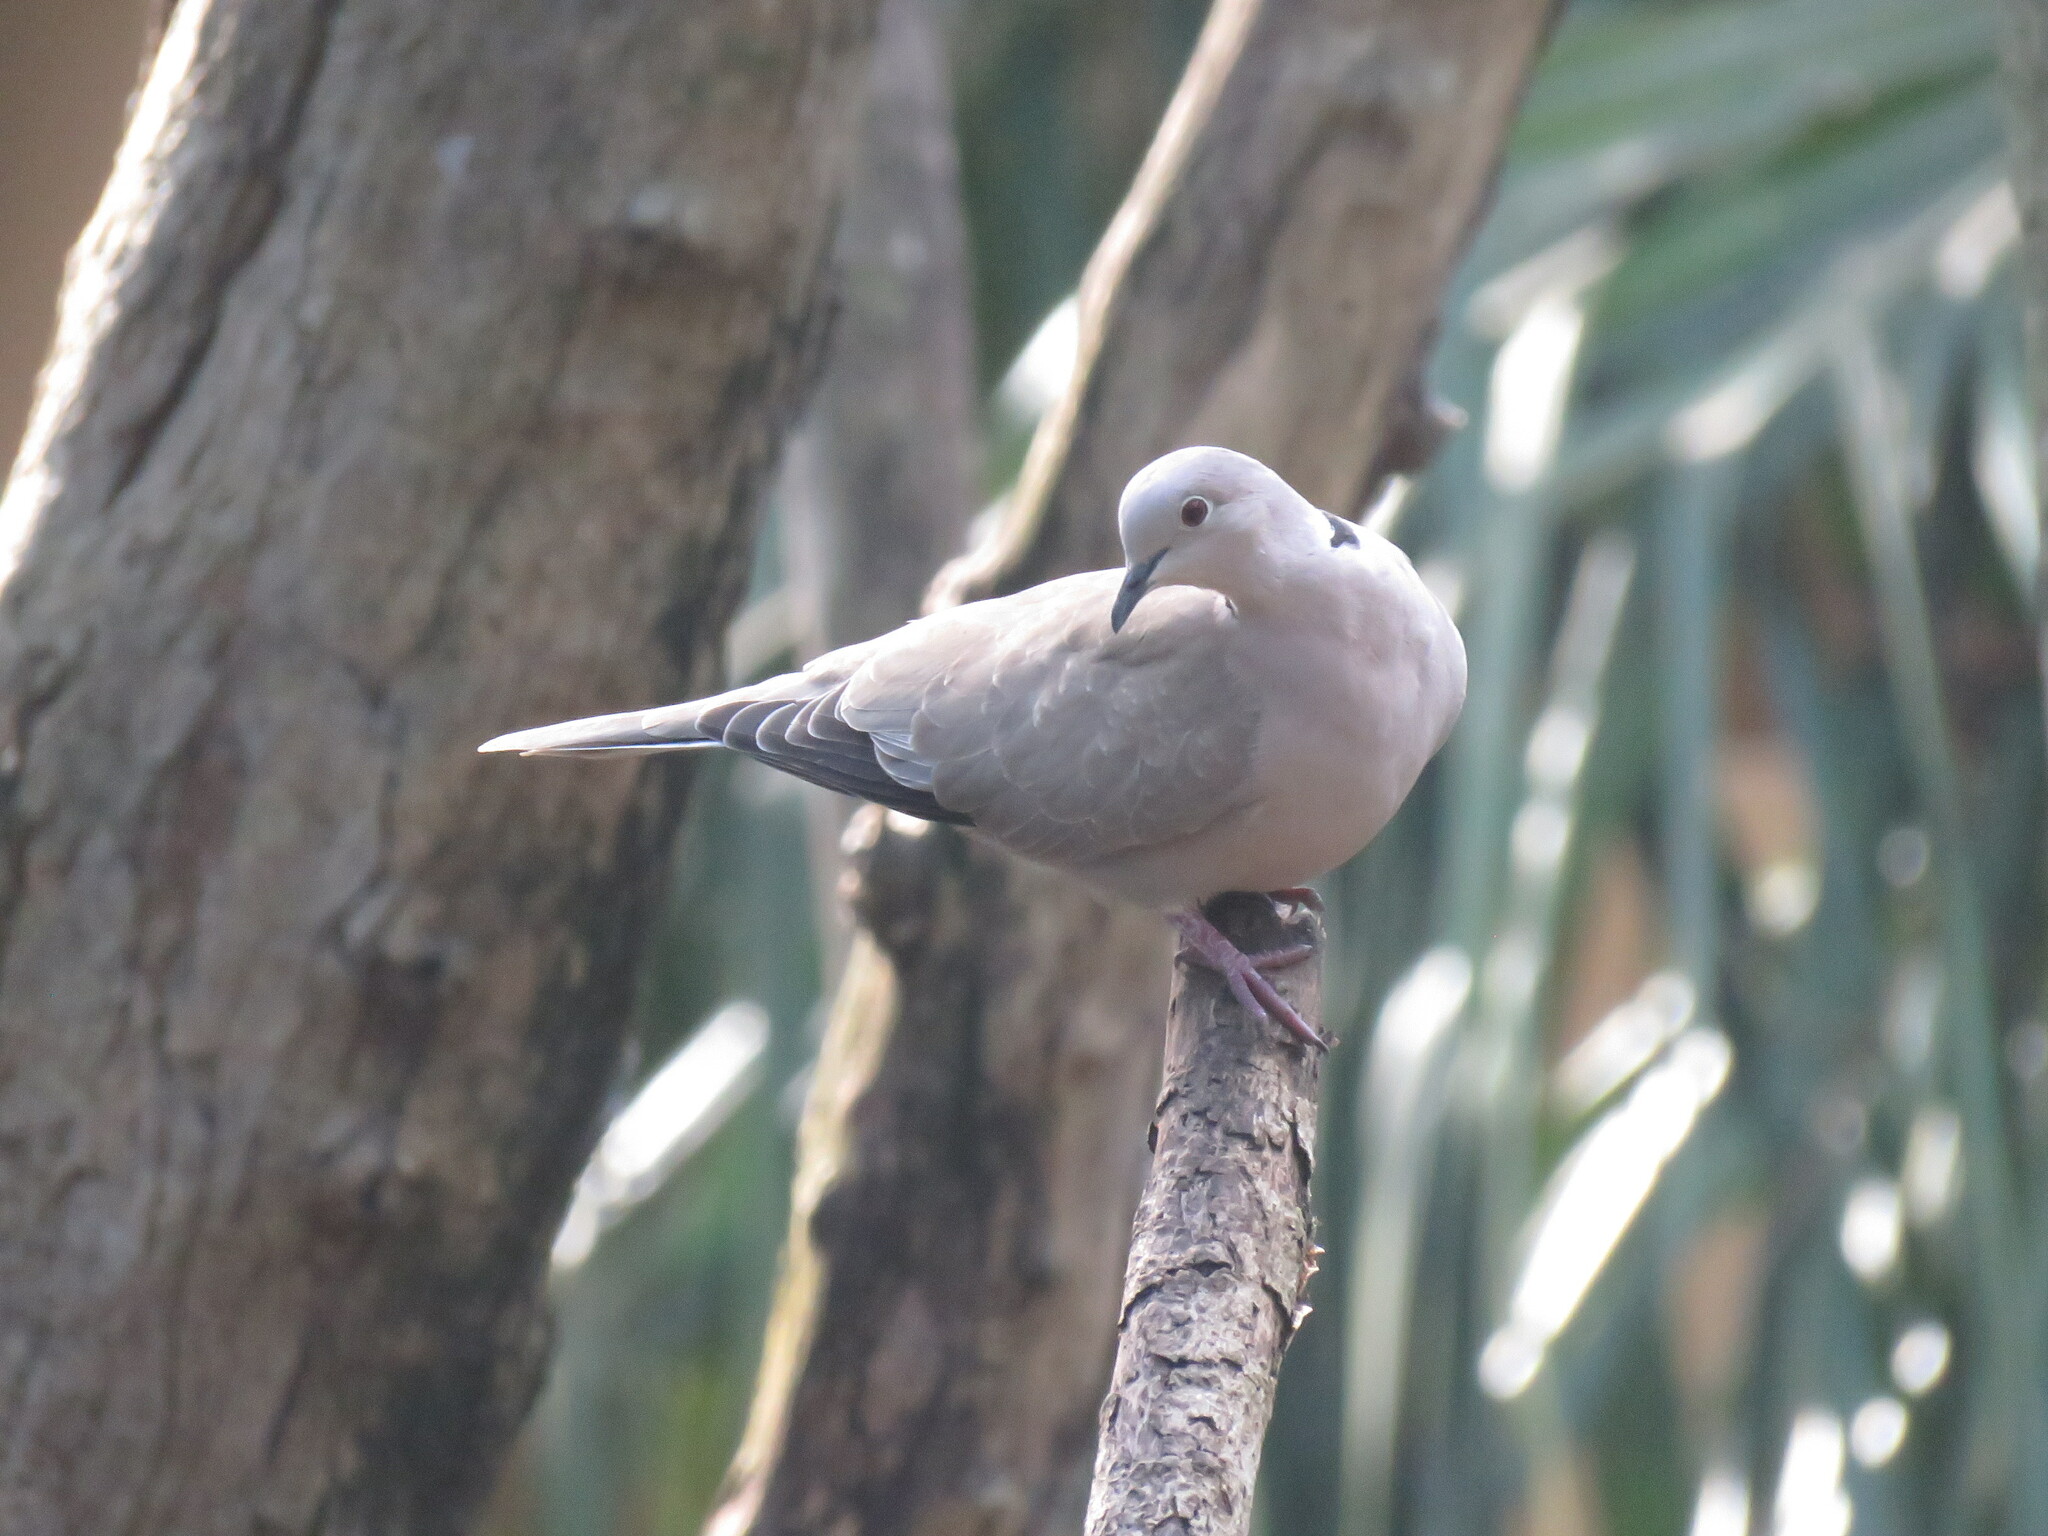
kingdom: Animalia
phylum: Chordata
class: Aves
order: Columbiformes
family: Columbidae
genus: Streptopelia
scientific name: Streptopelia decaocto
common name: Eurasian collared dove
